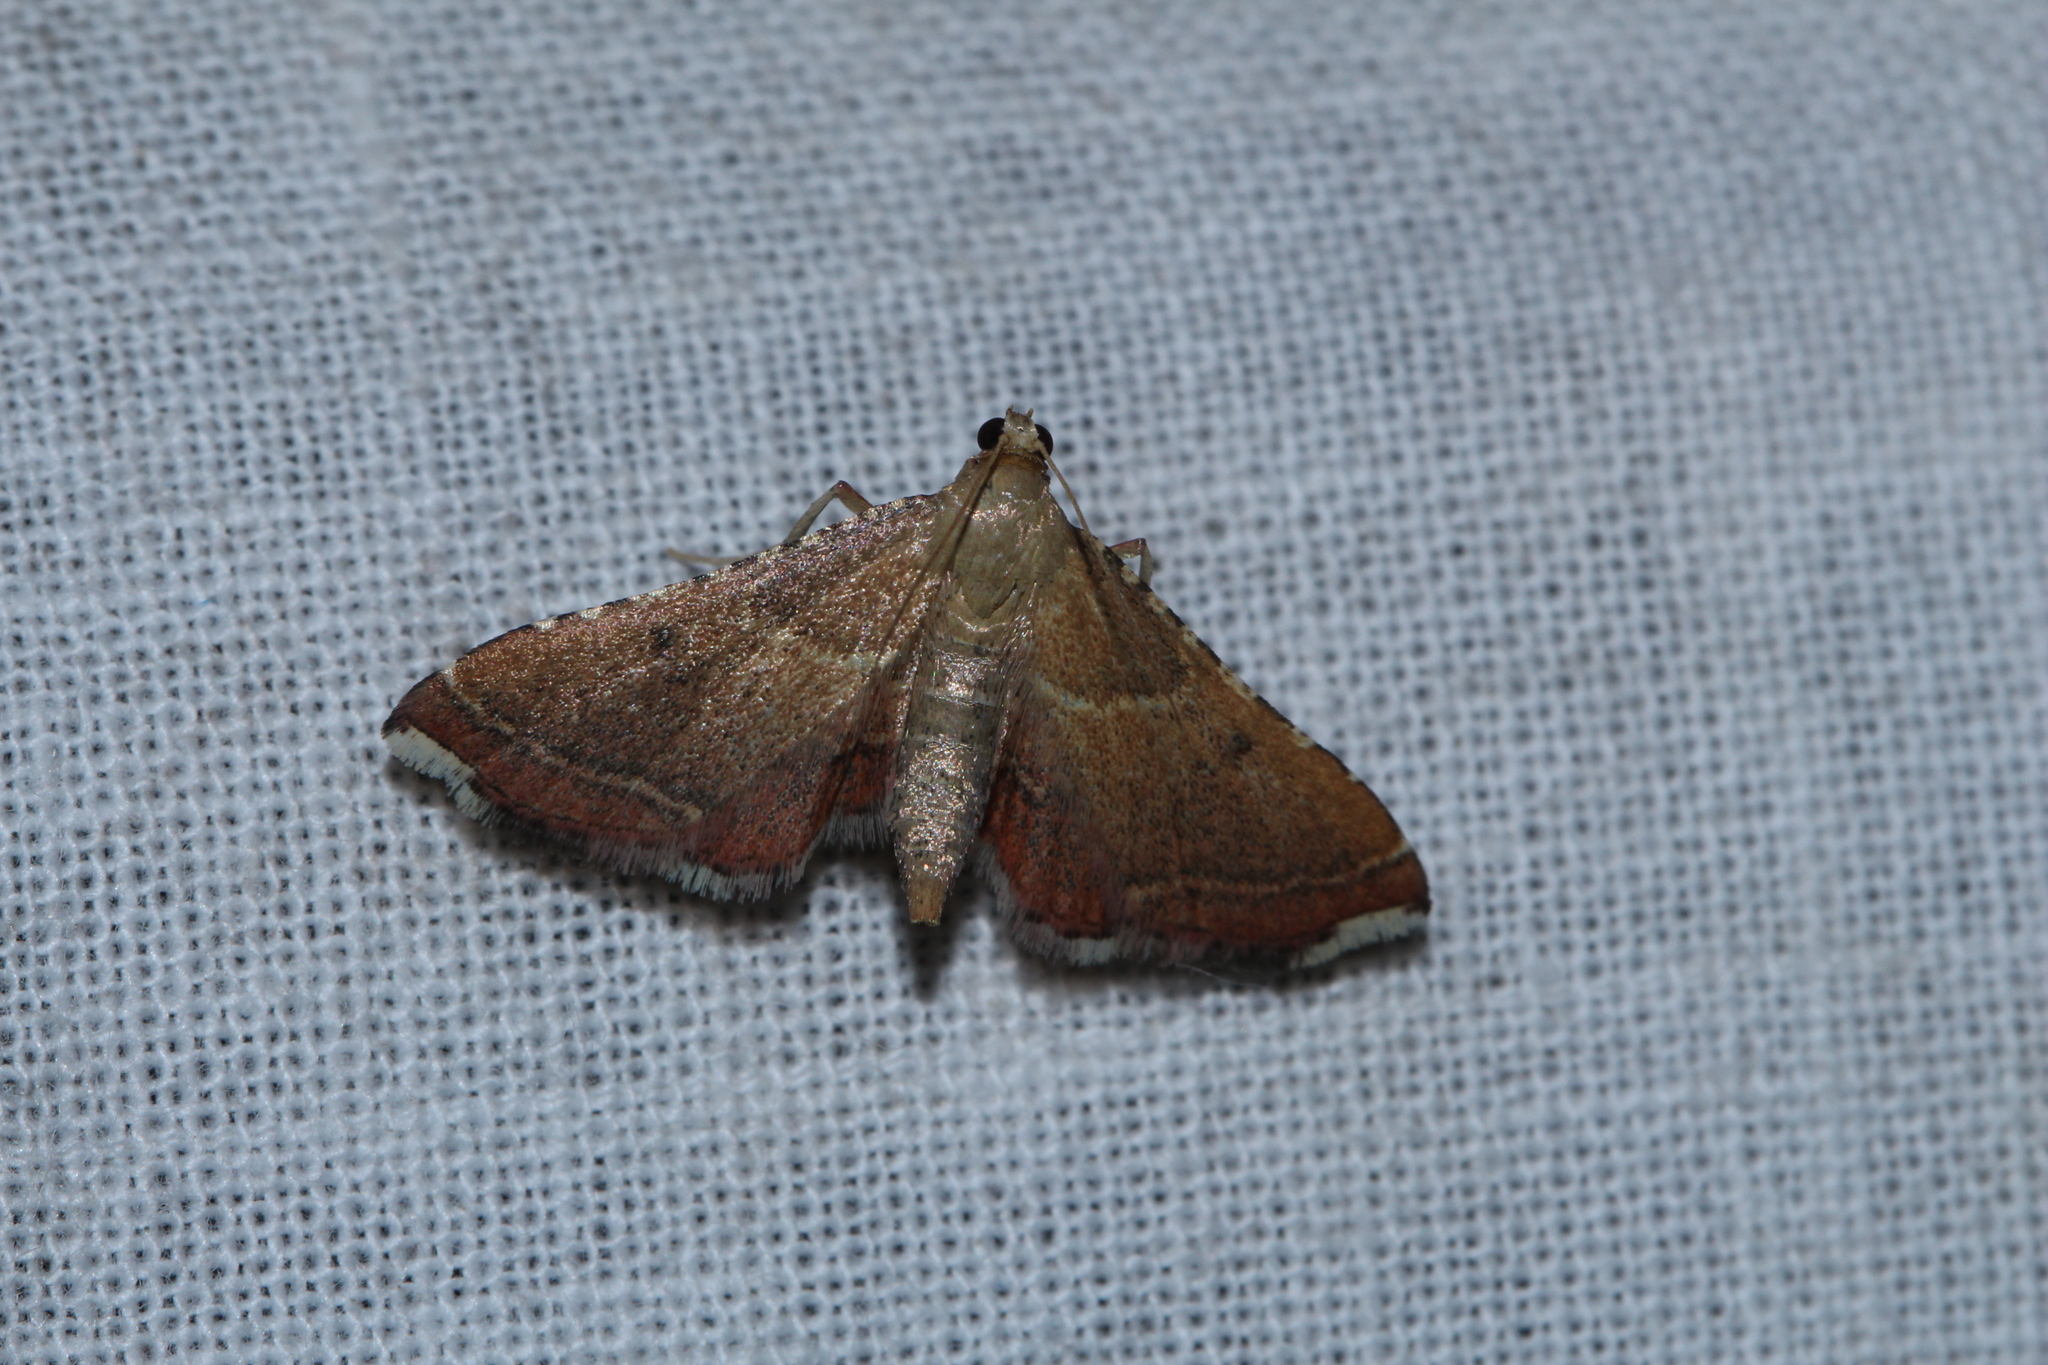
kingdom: Animalia
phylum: Arthropoda
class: Insecta
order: Lepidoptera
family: Pyralidae
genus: Endotricha
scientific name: Endotricha flammealis
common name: Rosy tabby
